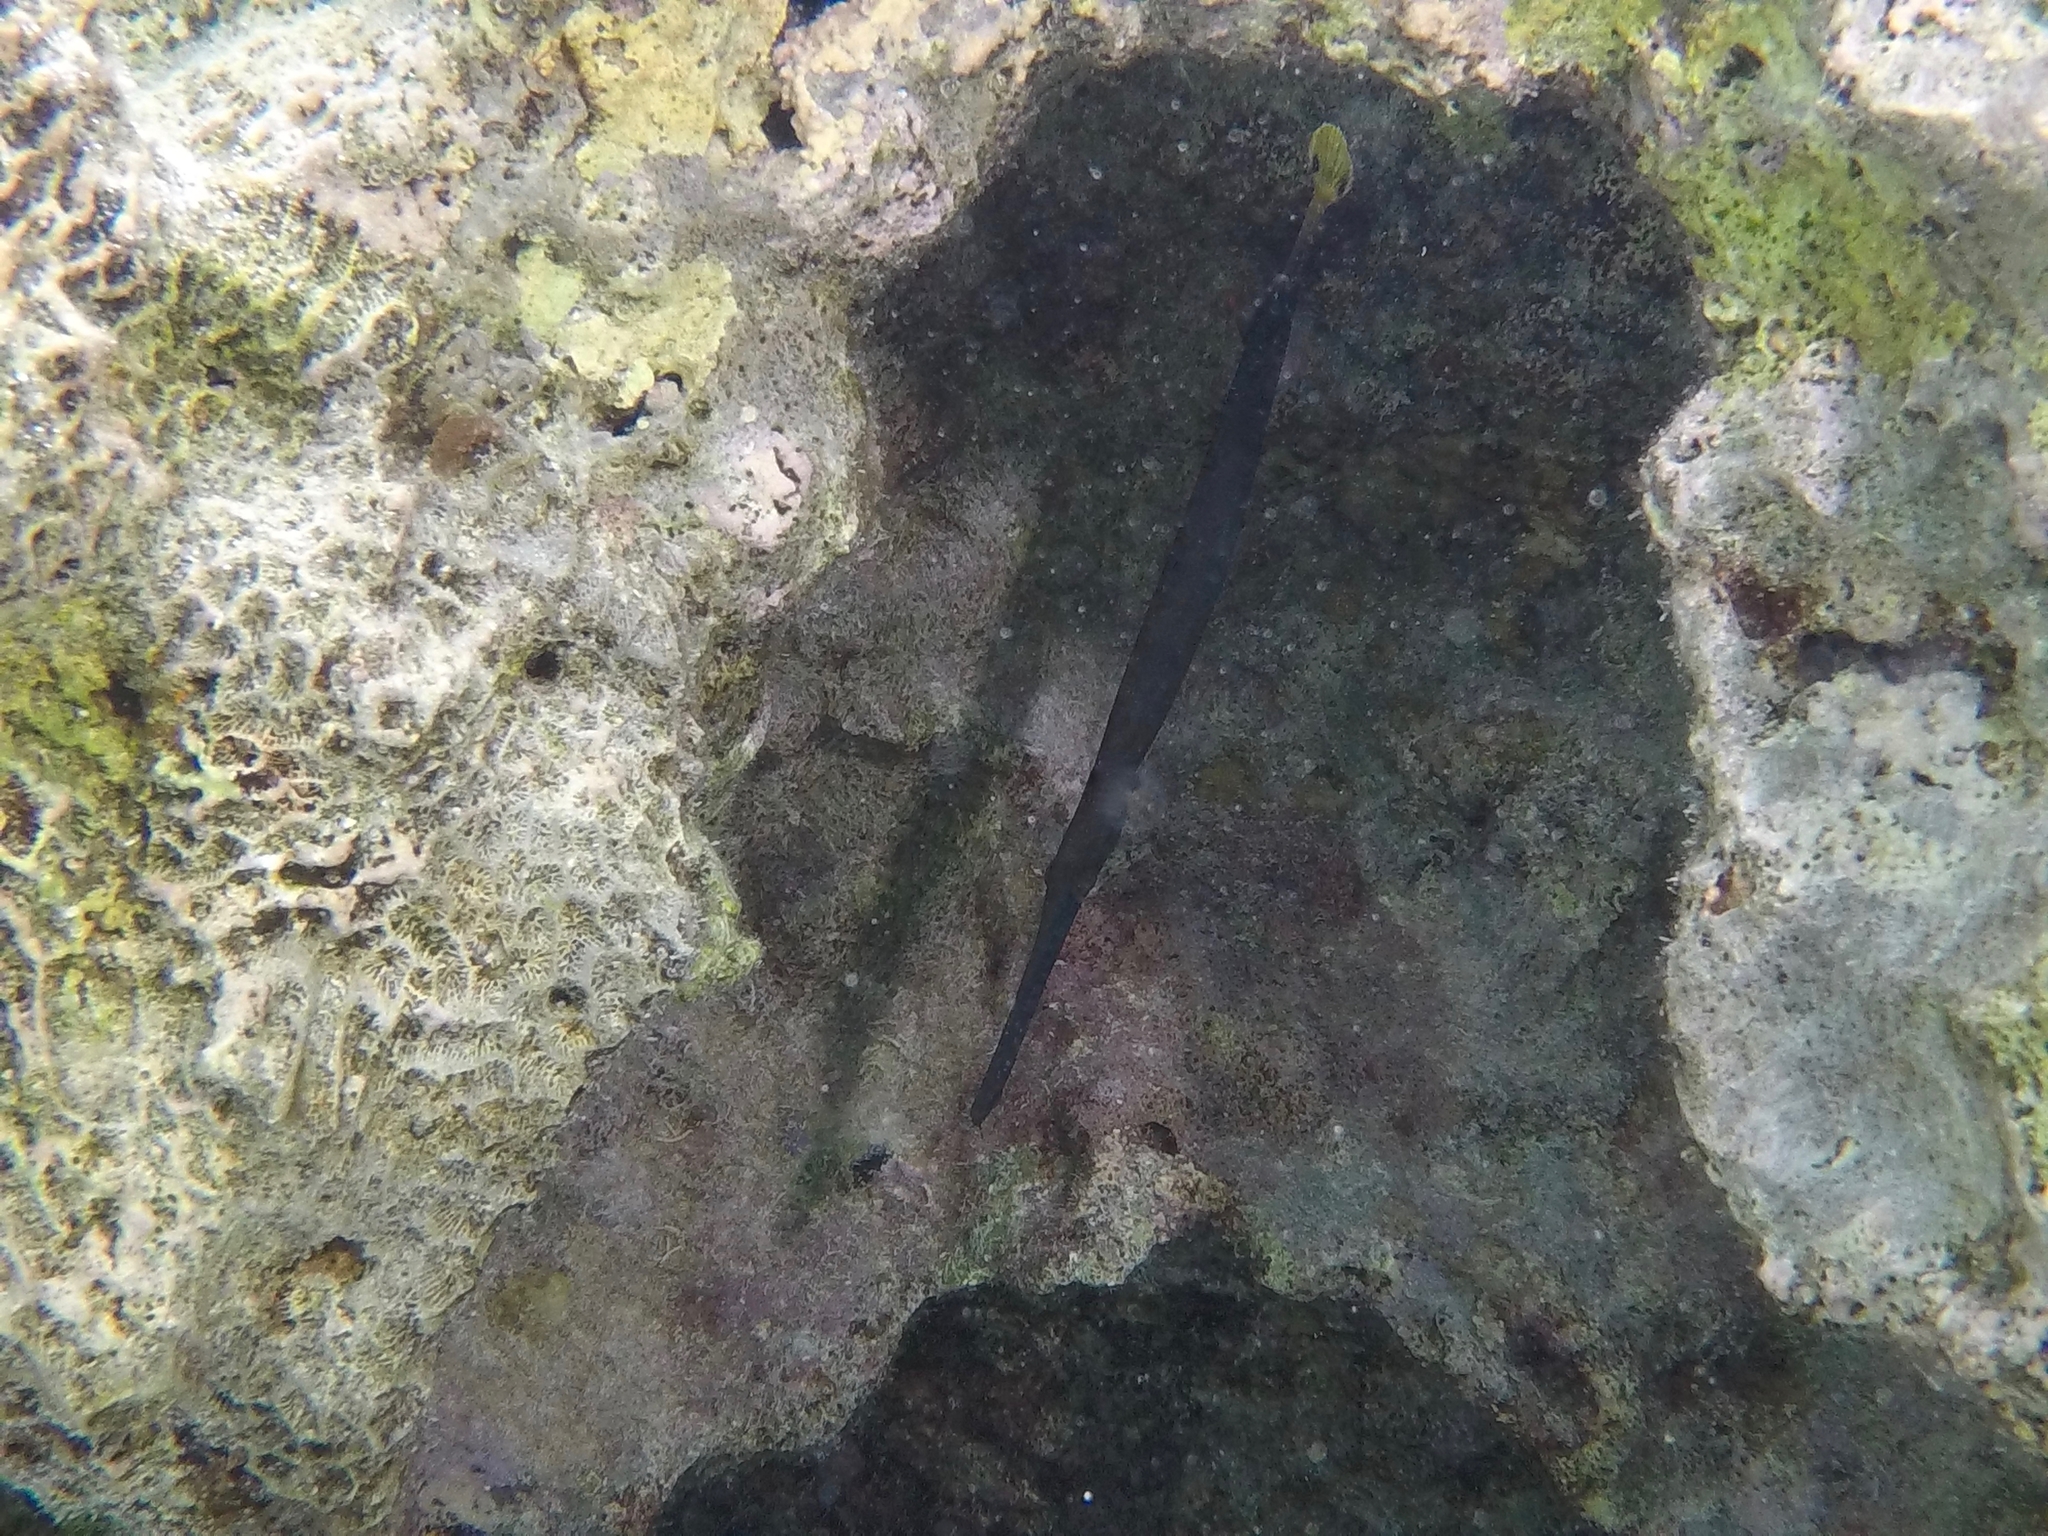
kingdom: Animalia
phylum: Chordata
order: Syngnathiformes
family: Aulostomidae
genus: Aulostomus
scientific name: Aulostomus chinensis
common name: Chinese trumpetfish
